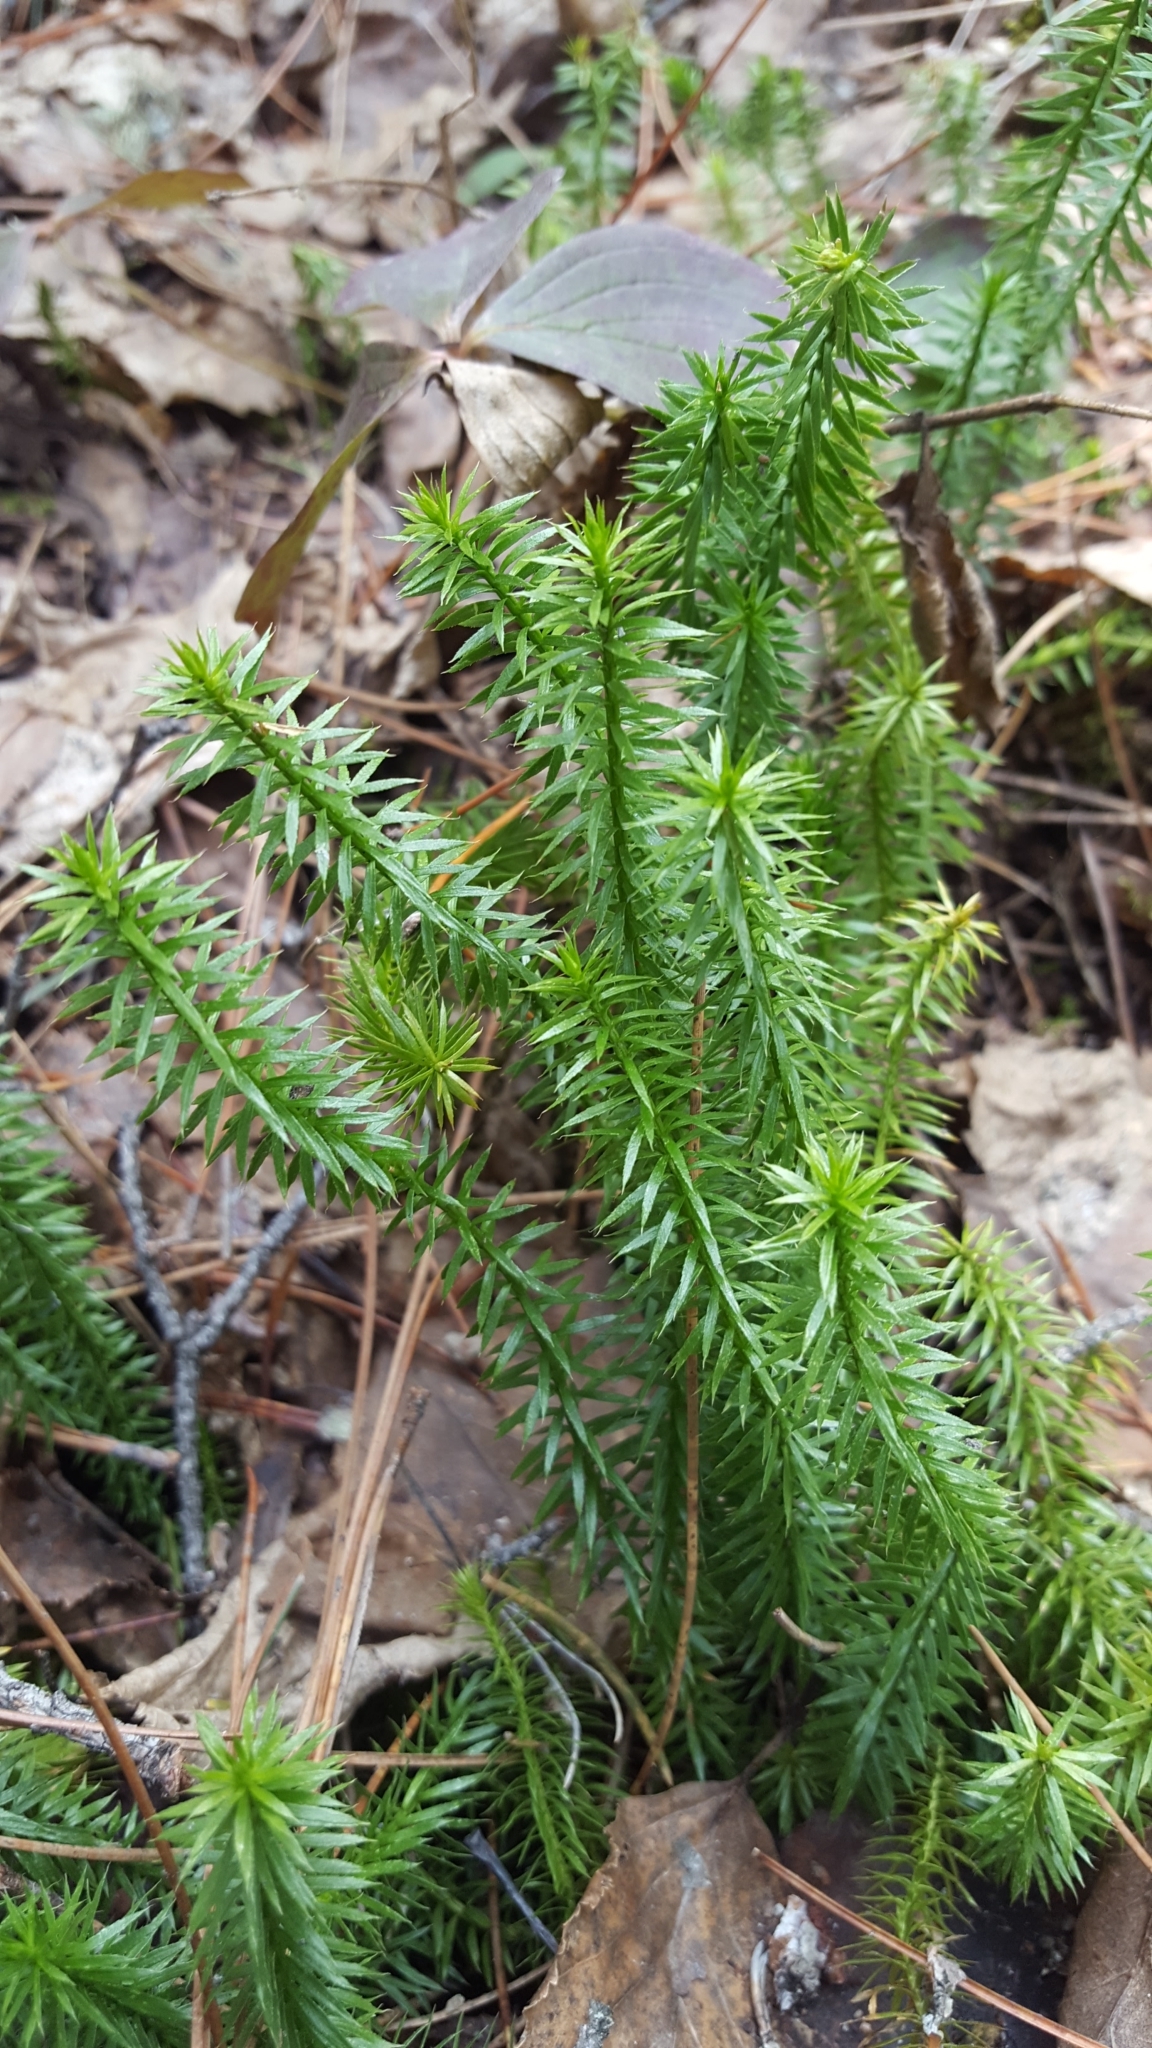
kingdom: Plantae
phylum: Tracheophyta
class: Lycopodiopsida
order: Lycopodiales
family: Lycopodiaceae
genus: Spinulum
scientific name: Spinulum annotinum
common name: Interrupted club-moss
